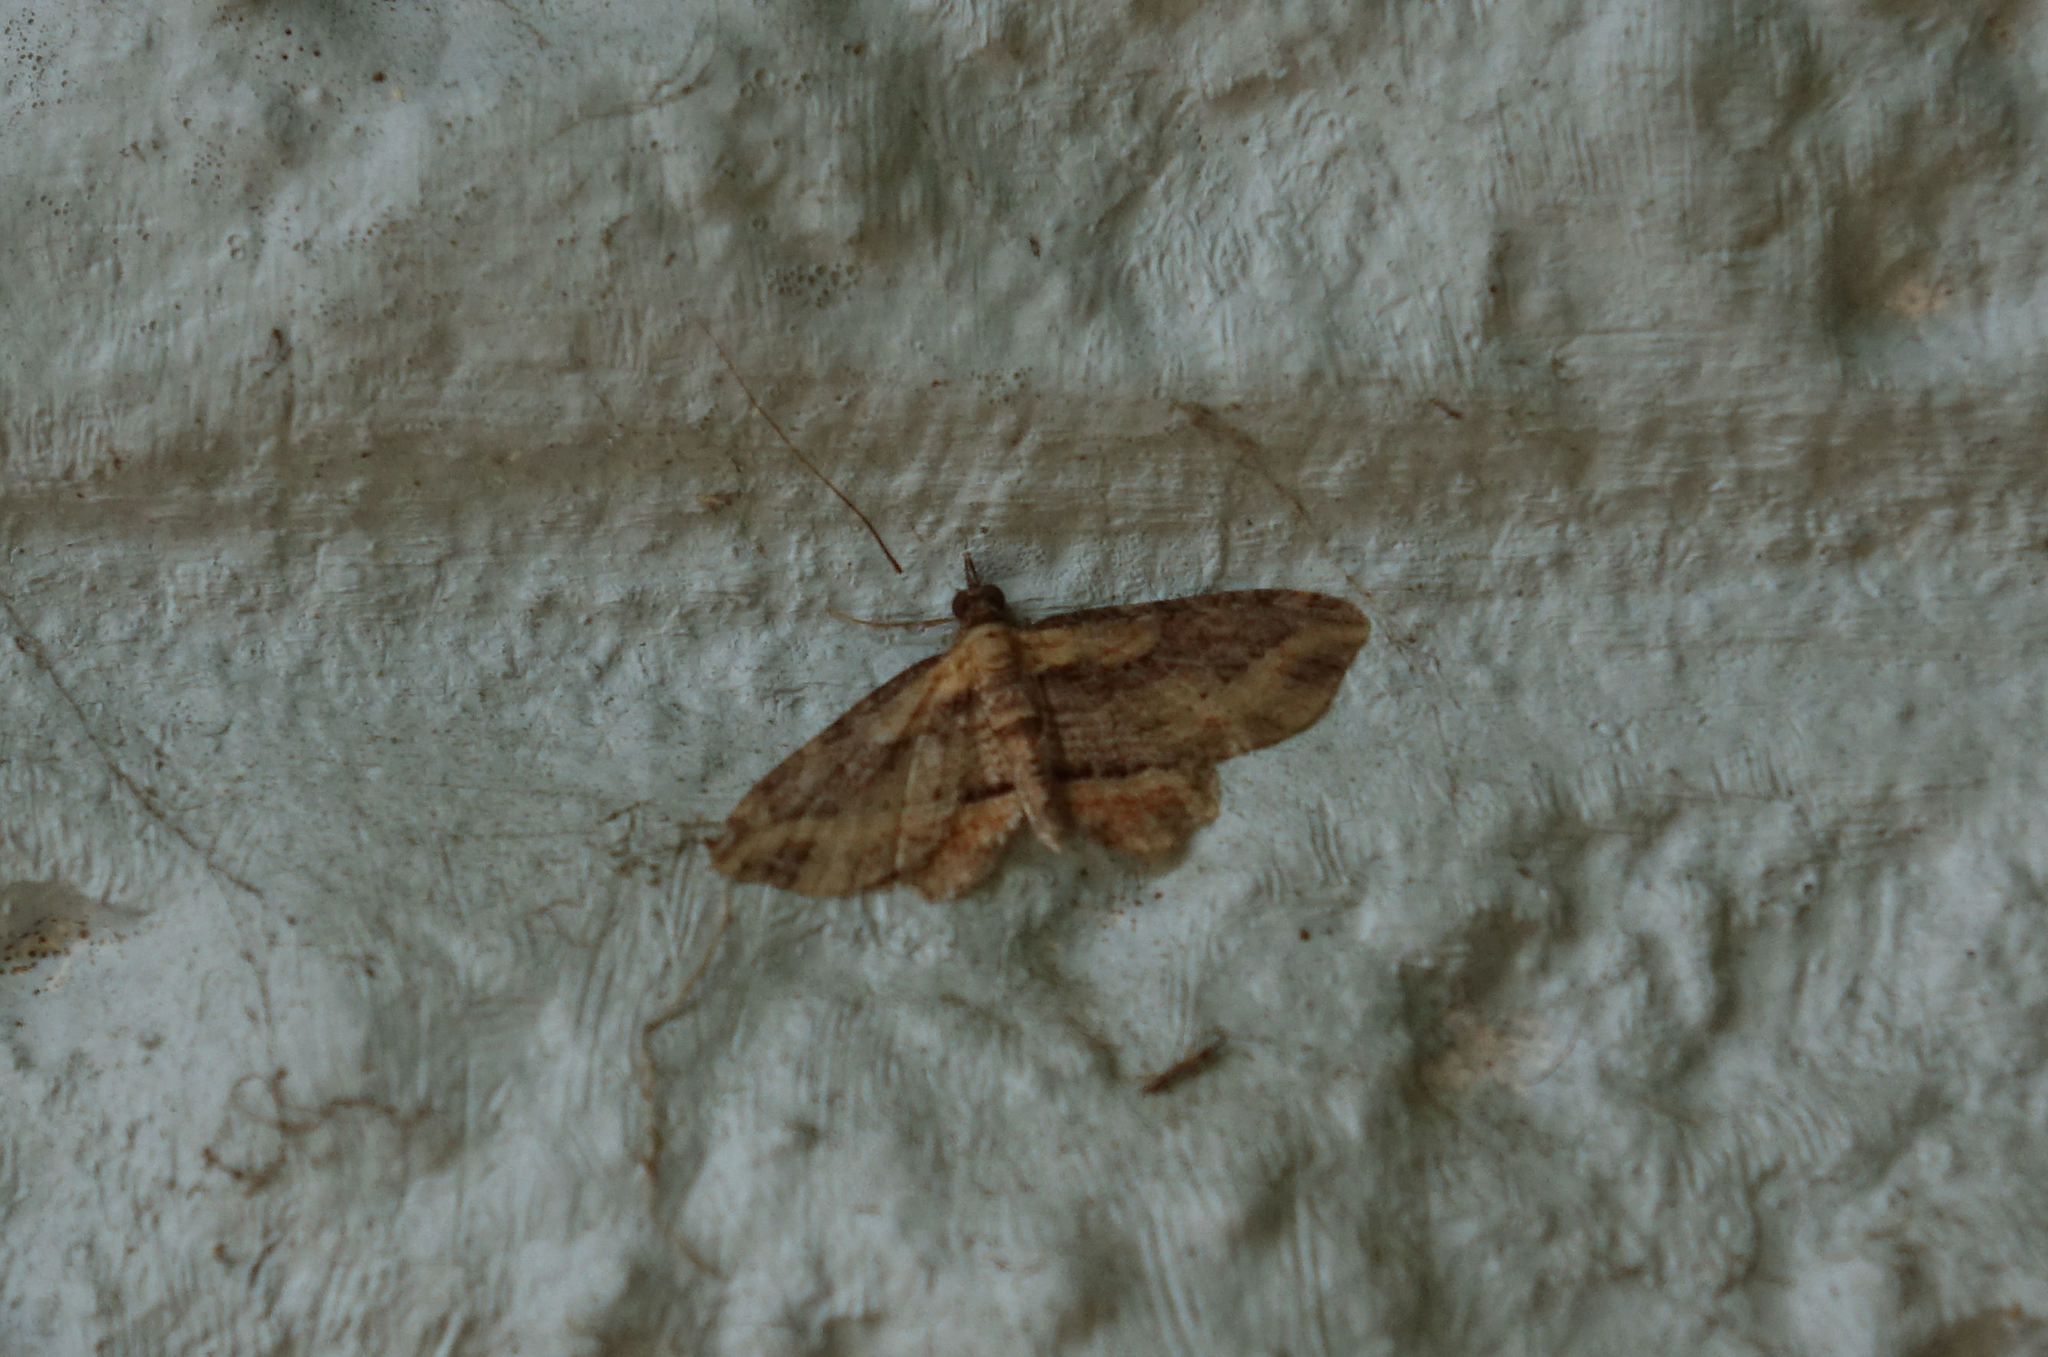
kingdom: Animalia
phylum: Arthropoda
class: Insecta
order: Lepidoptera
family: Geometridae
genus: Chloroclystis
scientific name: Chloroclystis filata
